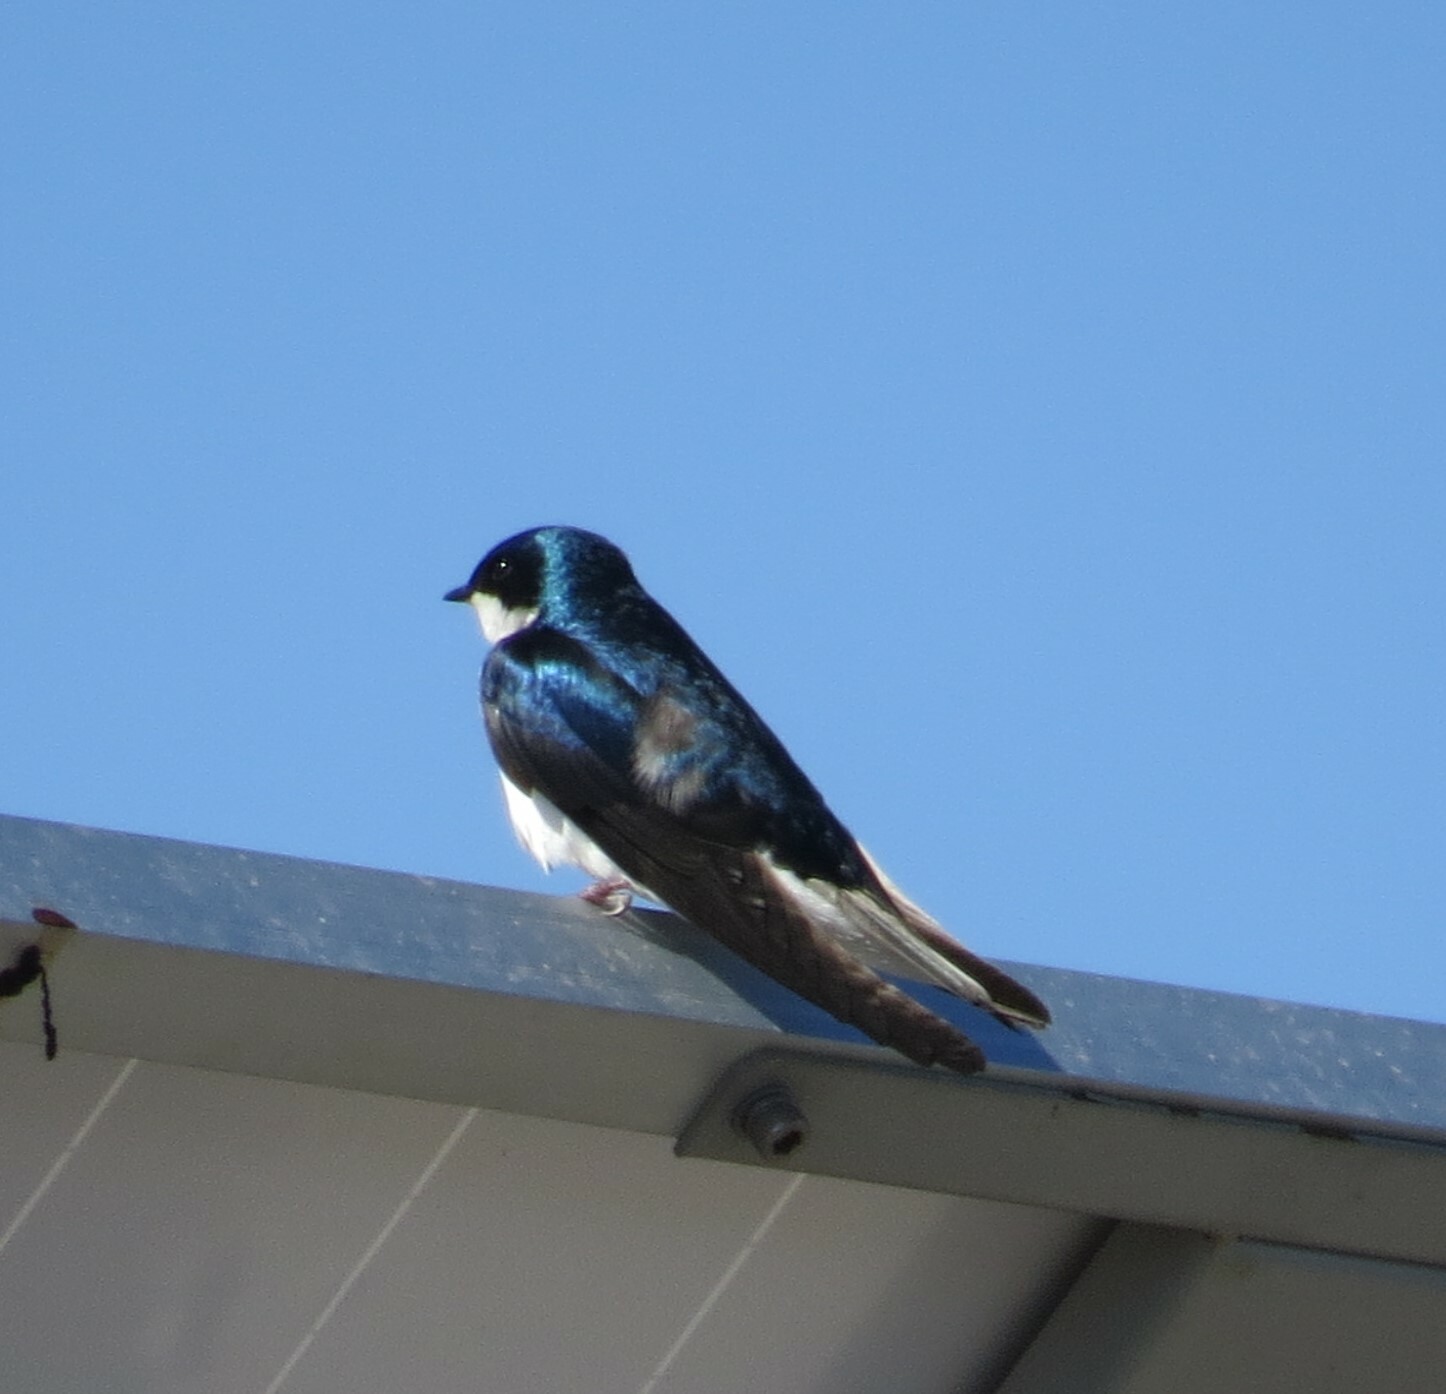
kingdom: Animalia
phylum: Chordata
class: Aves
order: Passeriformes
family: Hirundinidae
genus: Tachycineta
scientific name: Tachycineta bicolor
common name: Tree swallow
